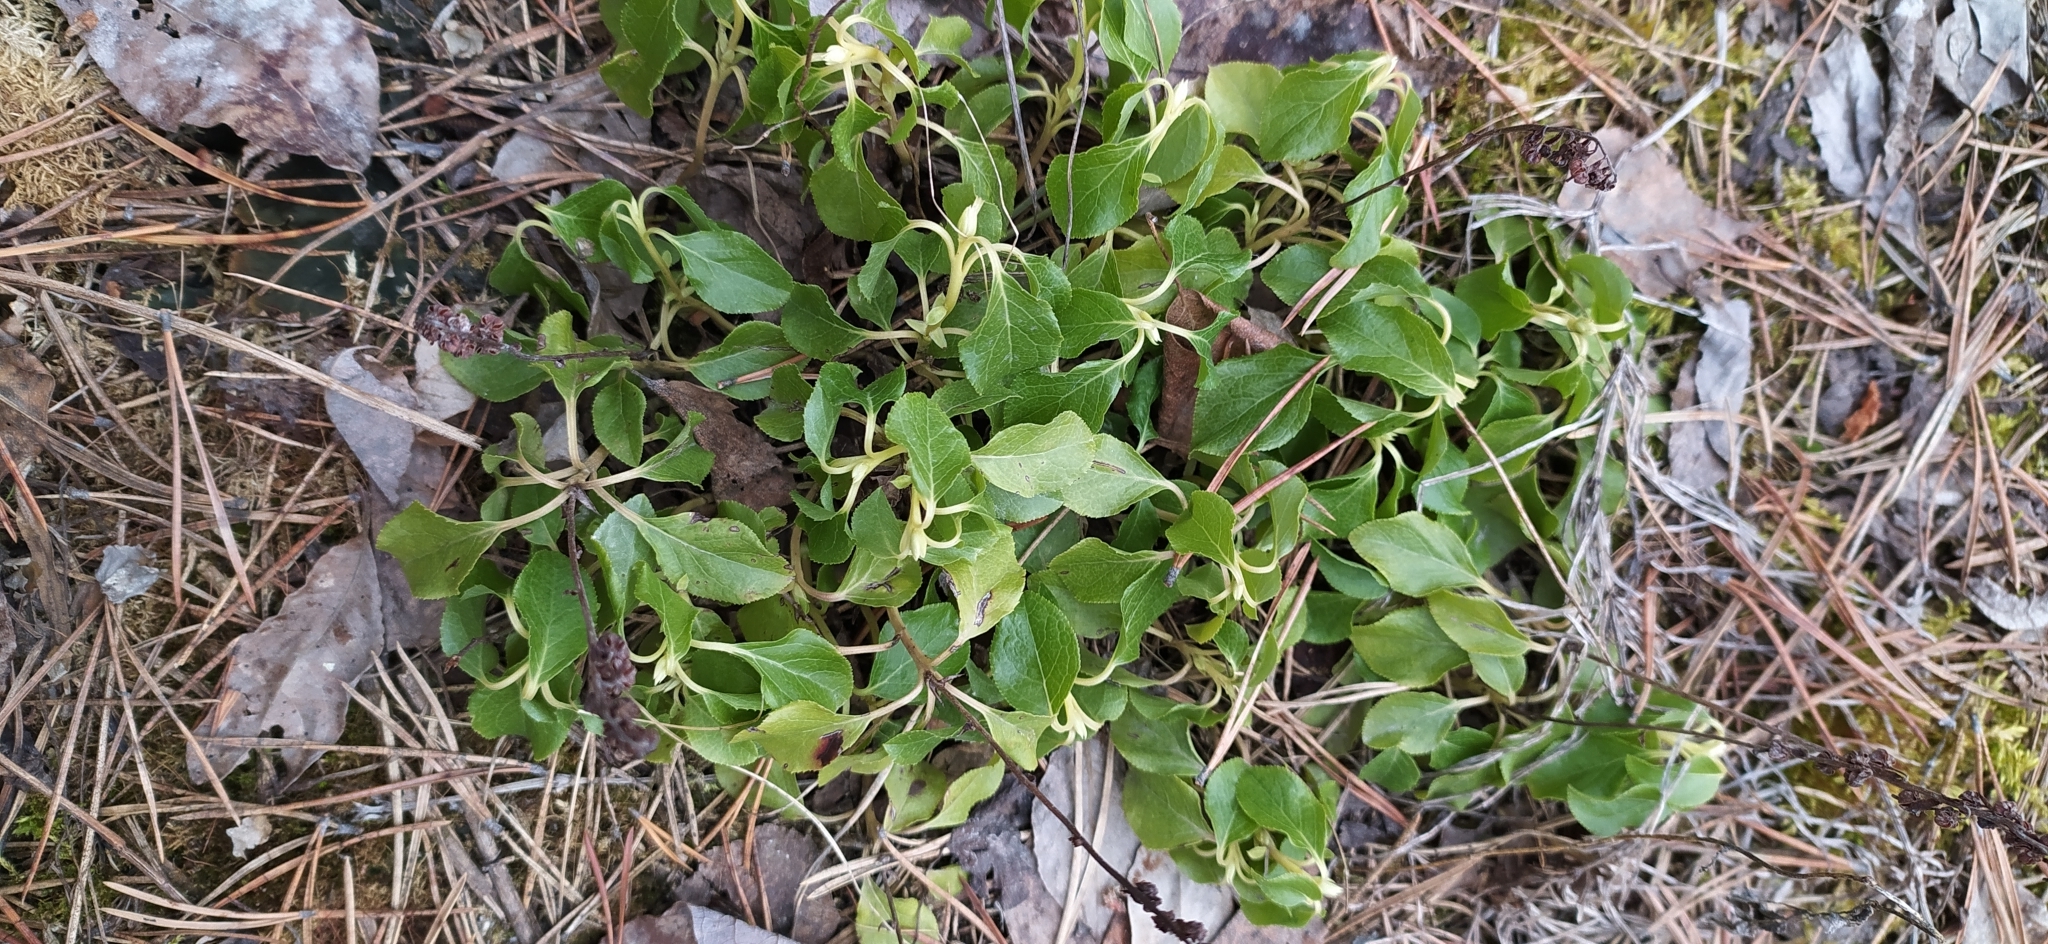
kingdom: Plantae
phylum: Tracheophyta
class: Magnoliopsida
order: Ericales
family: Ericaceae
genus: Orthilia
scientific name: Orthilia secunda
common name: One-sided orthilia
